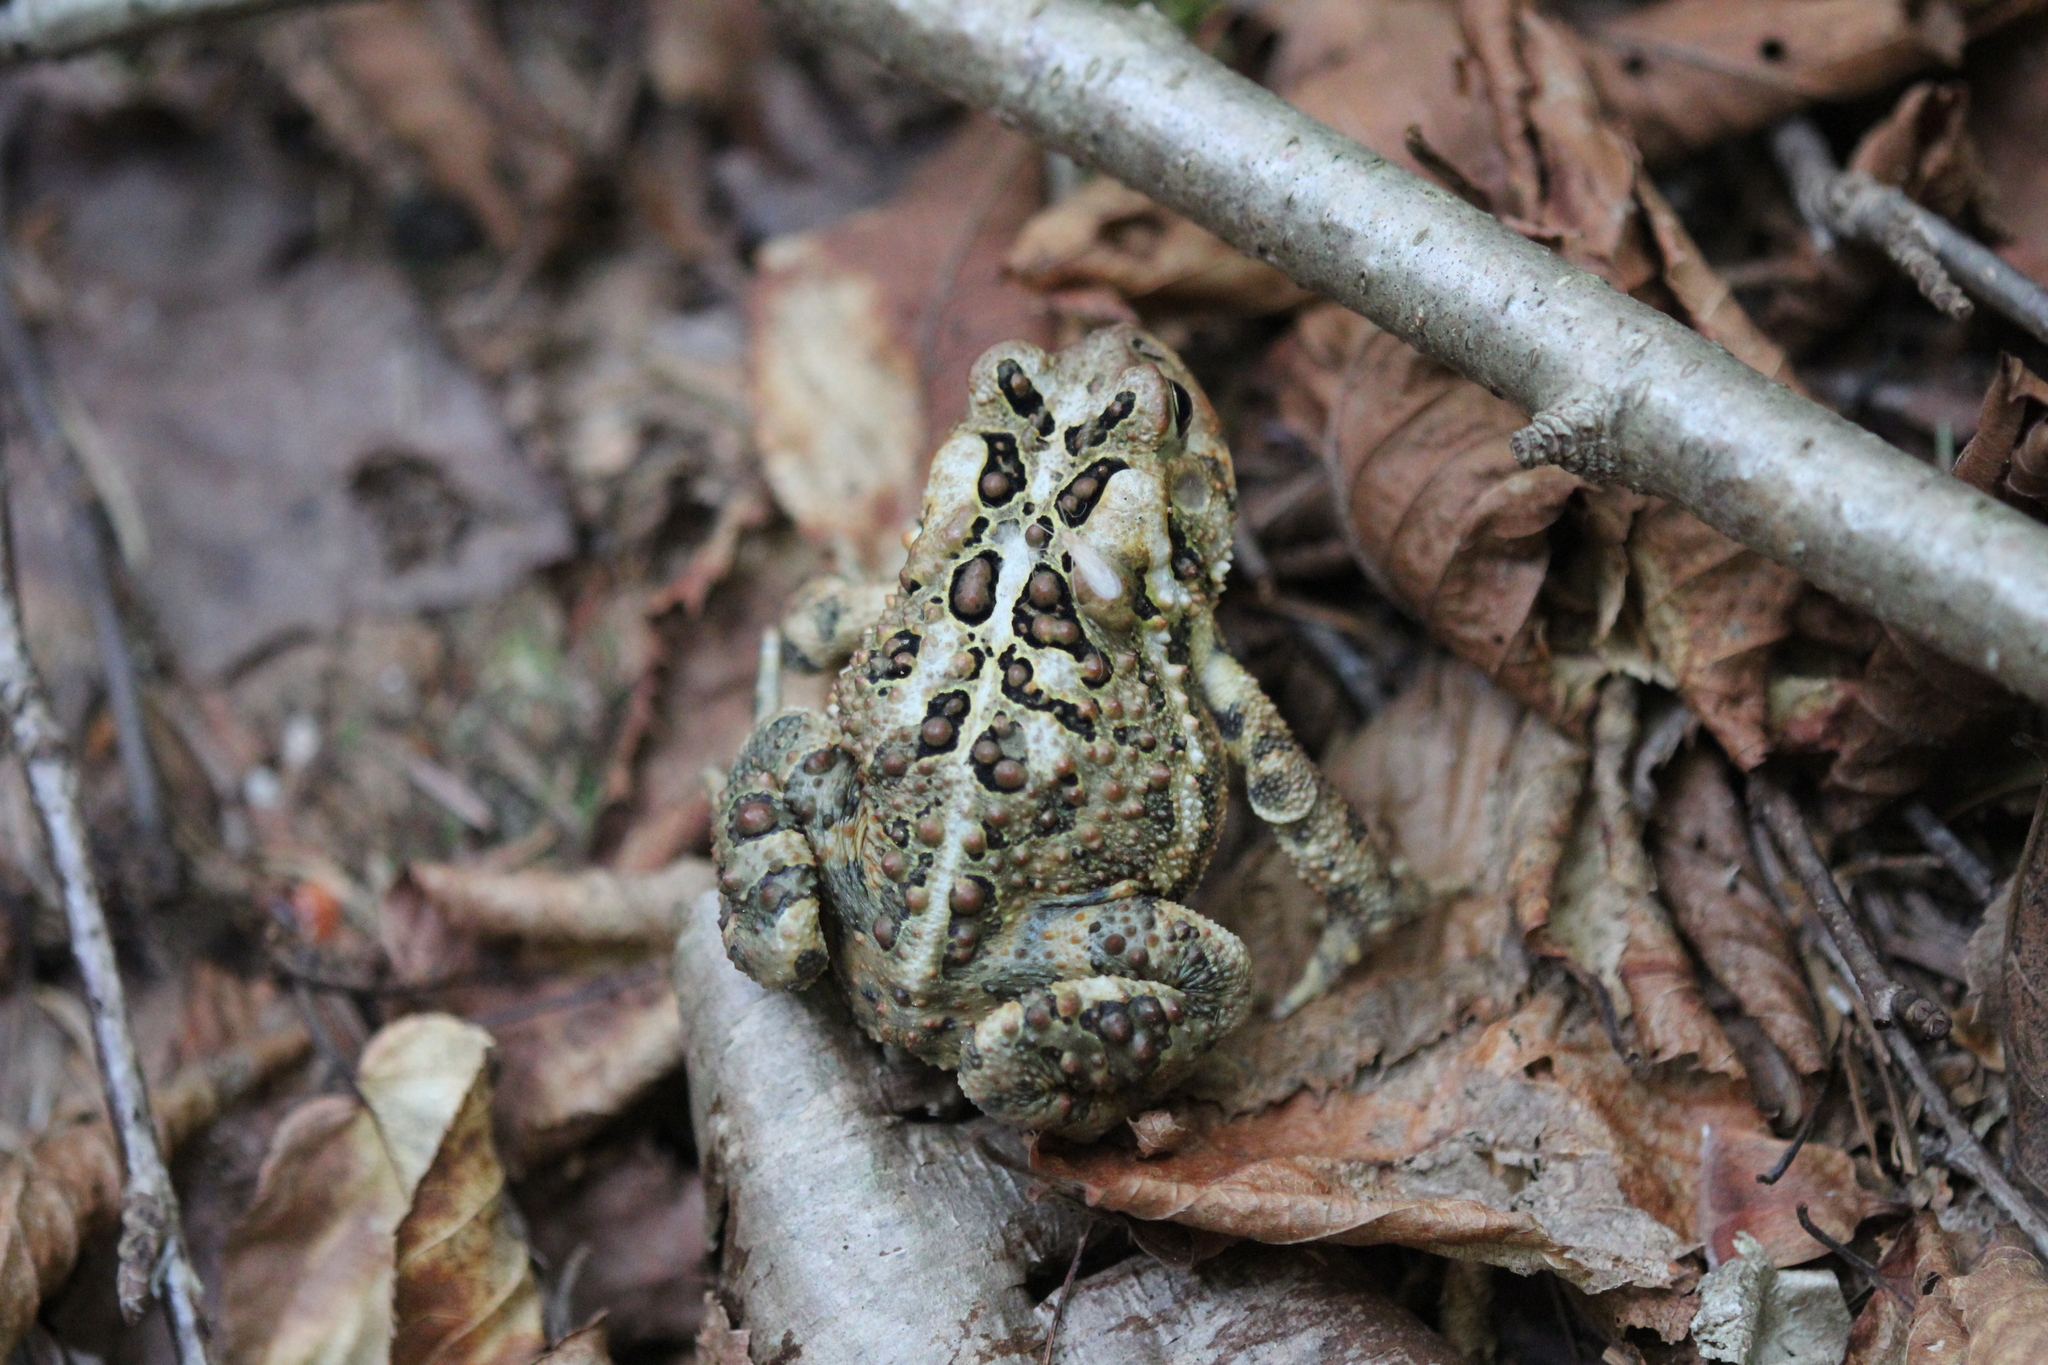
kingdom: Animalia
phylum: Chordata
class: Amphibia
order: Anura
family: Bufonidae
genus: Anaxyrus
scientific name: Anaxyrus americanus
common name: American toad
